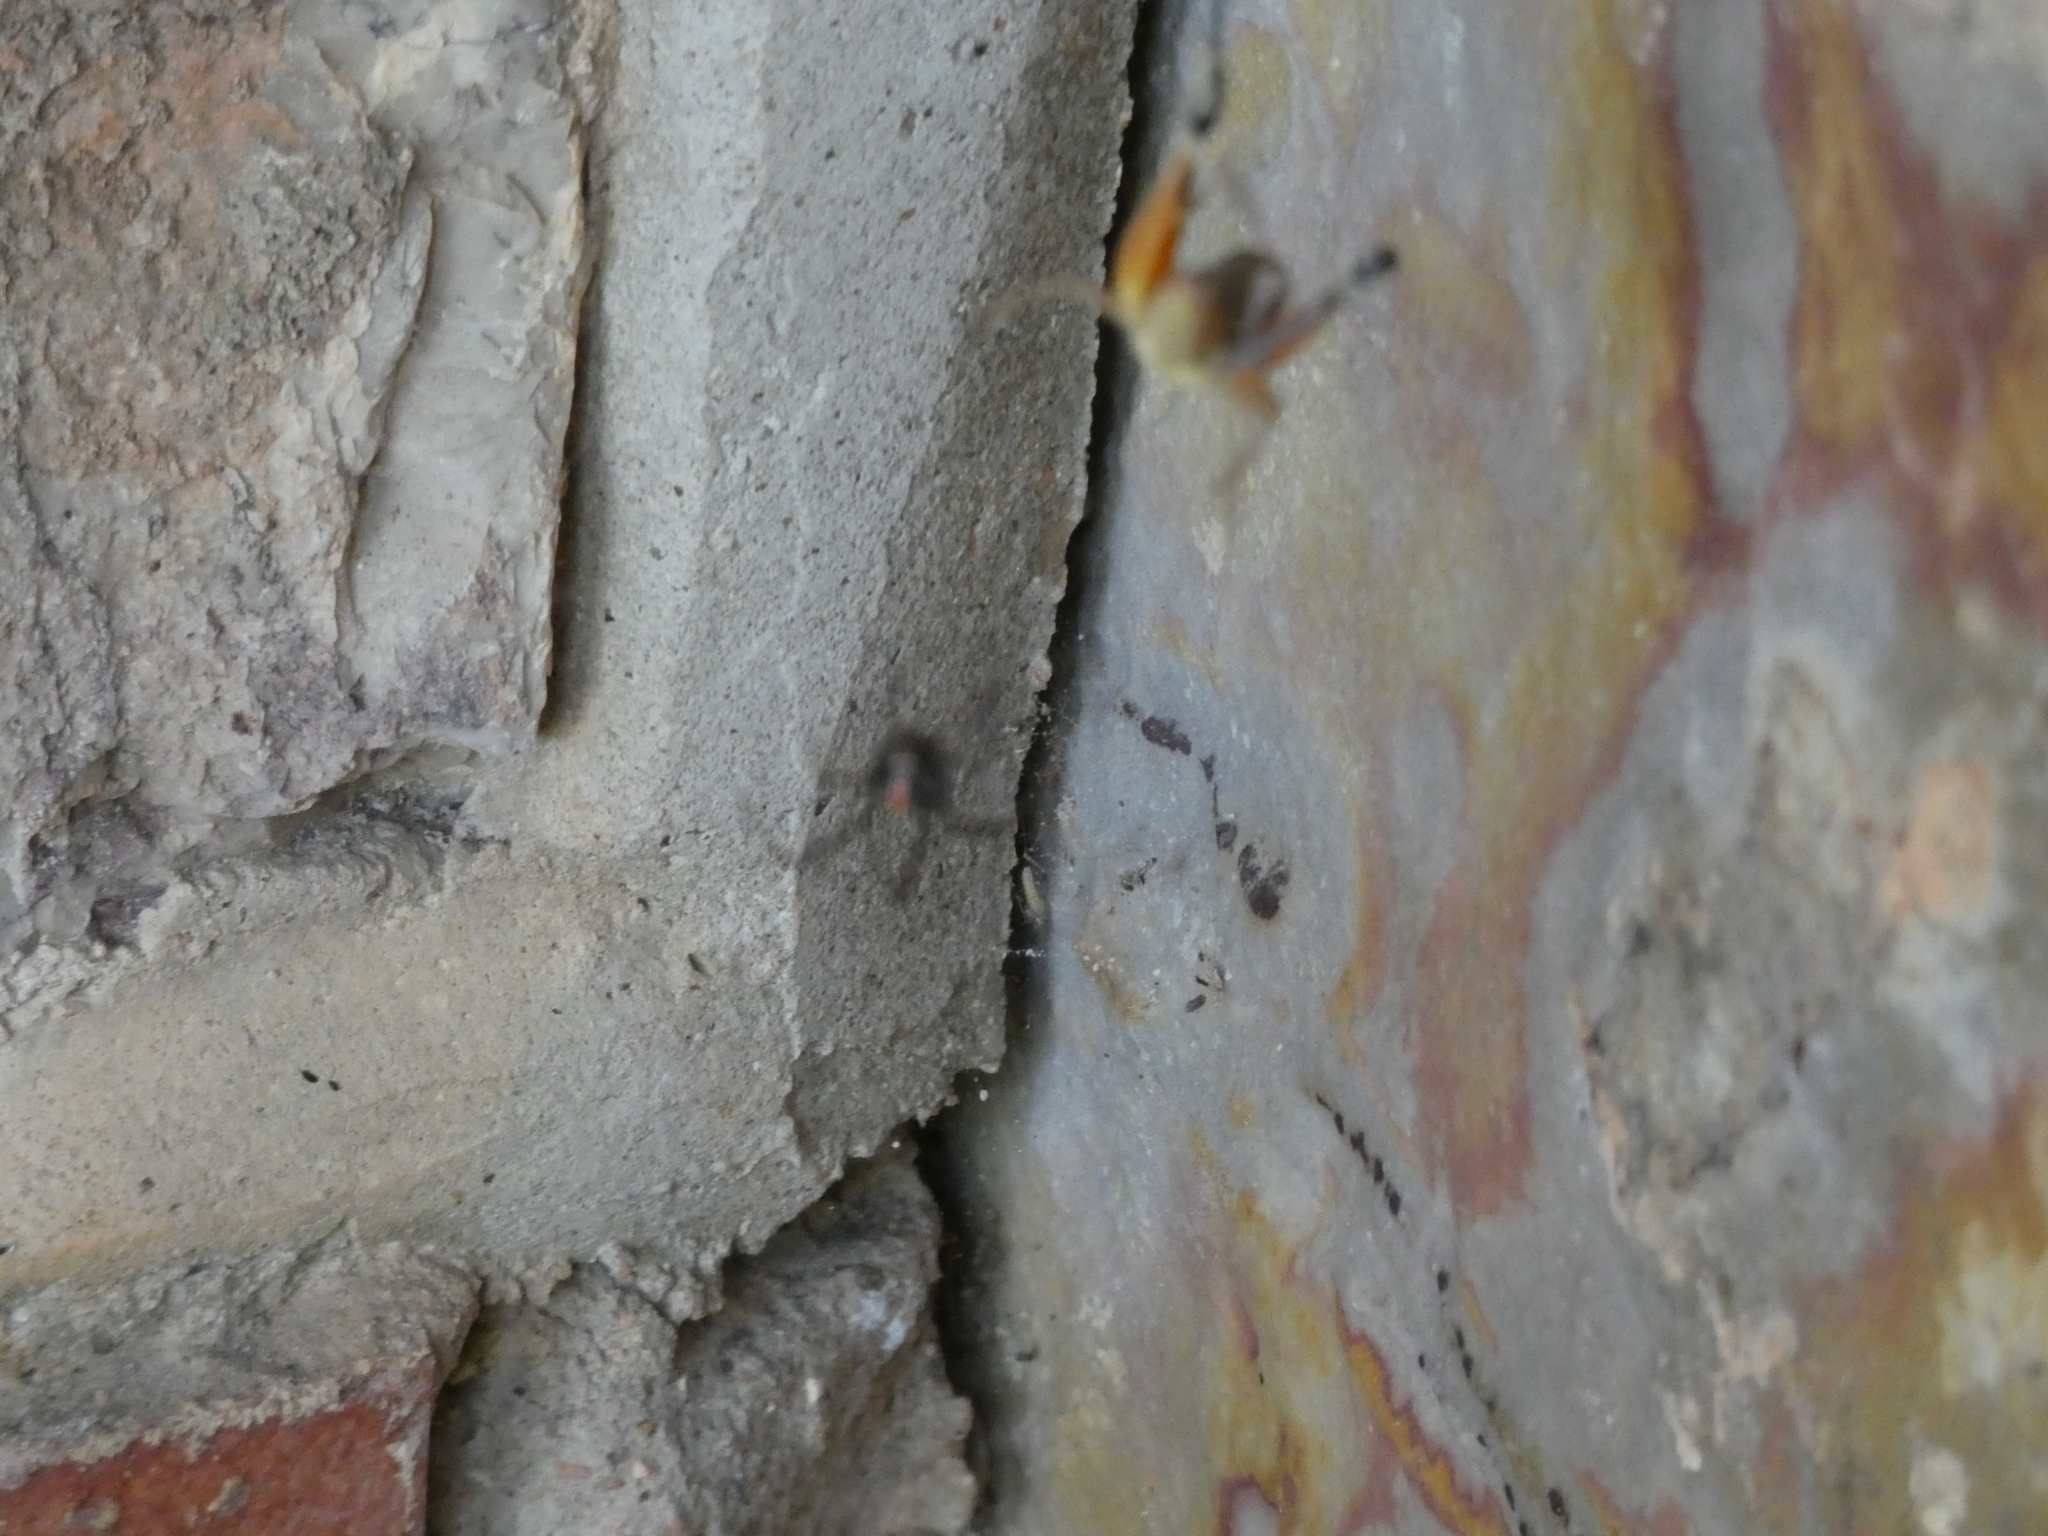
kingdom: Animalia
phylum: Arthropoda
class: Arachnida
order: Araneae
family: Theridiidae
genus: Latrodectus
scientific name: Latrodectus
